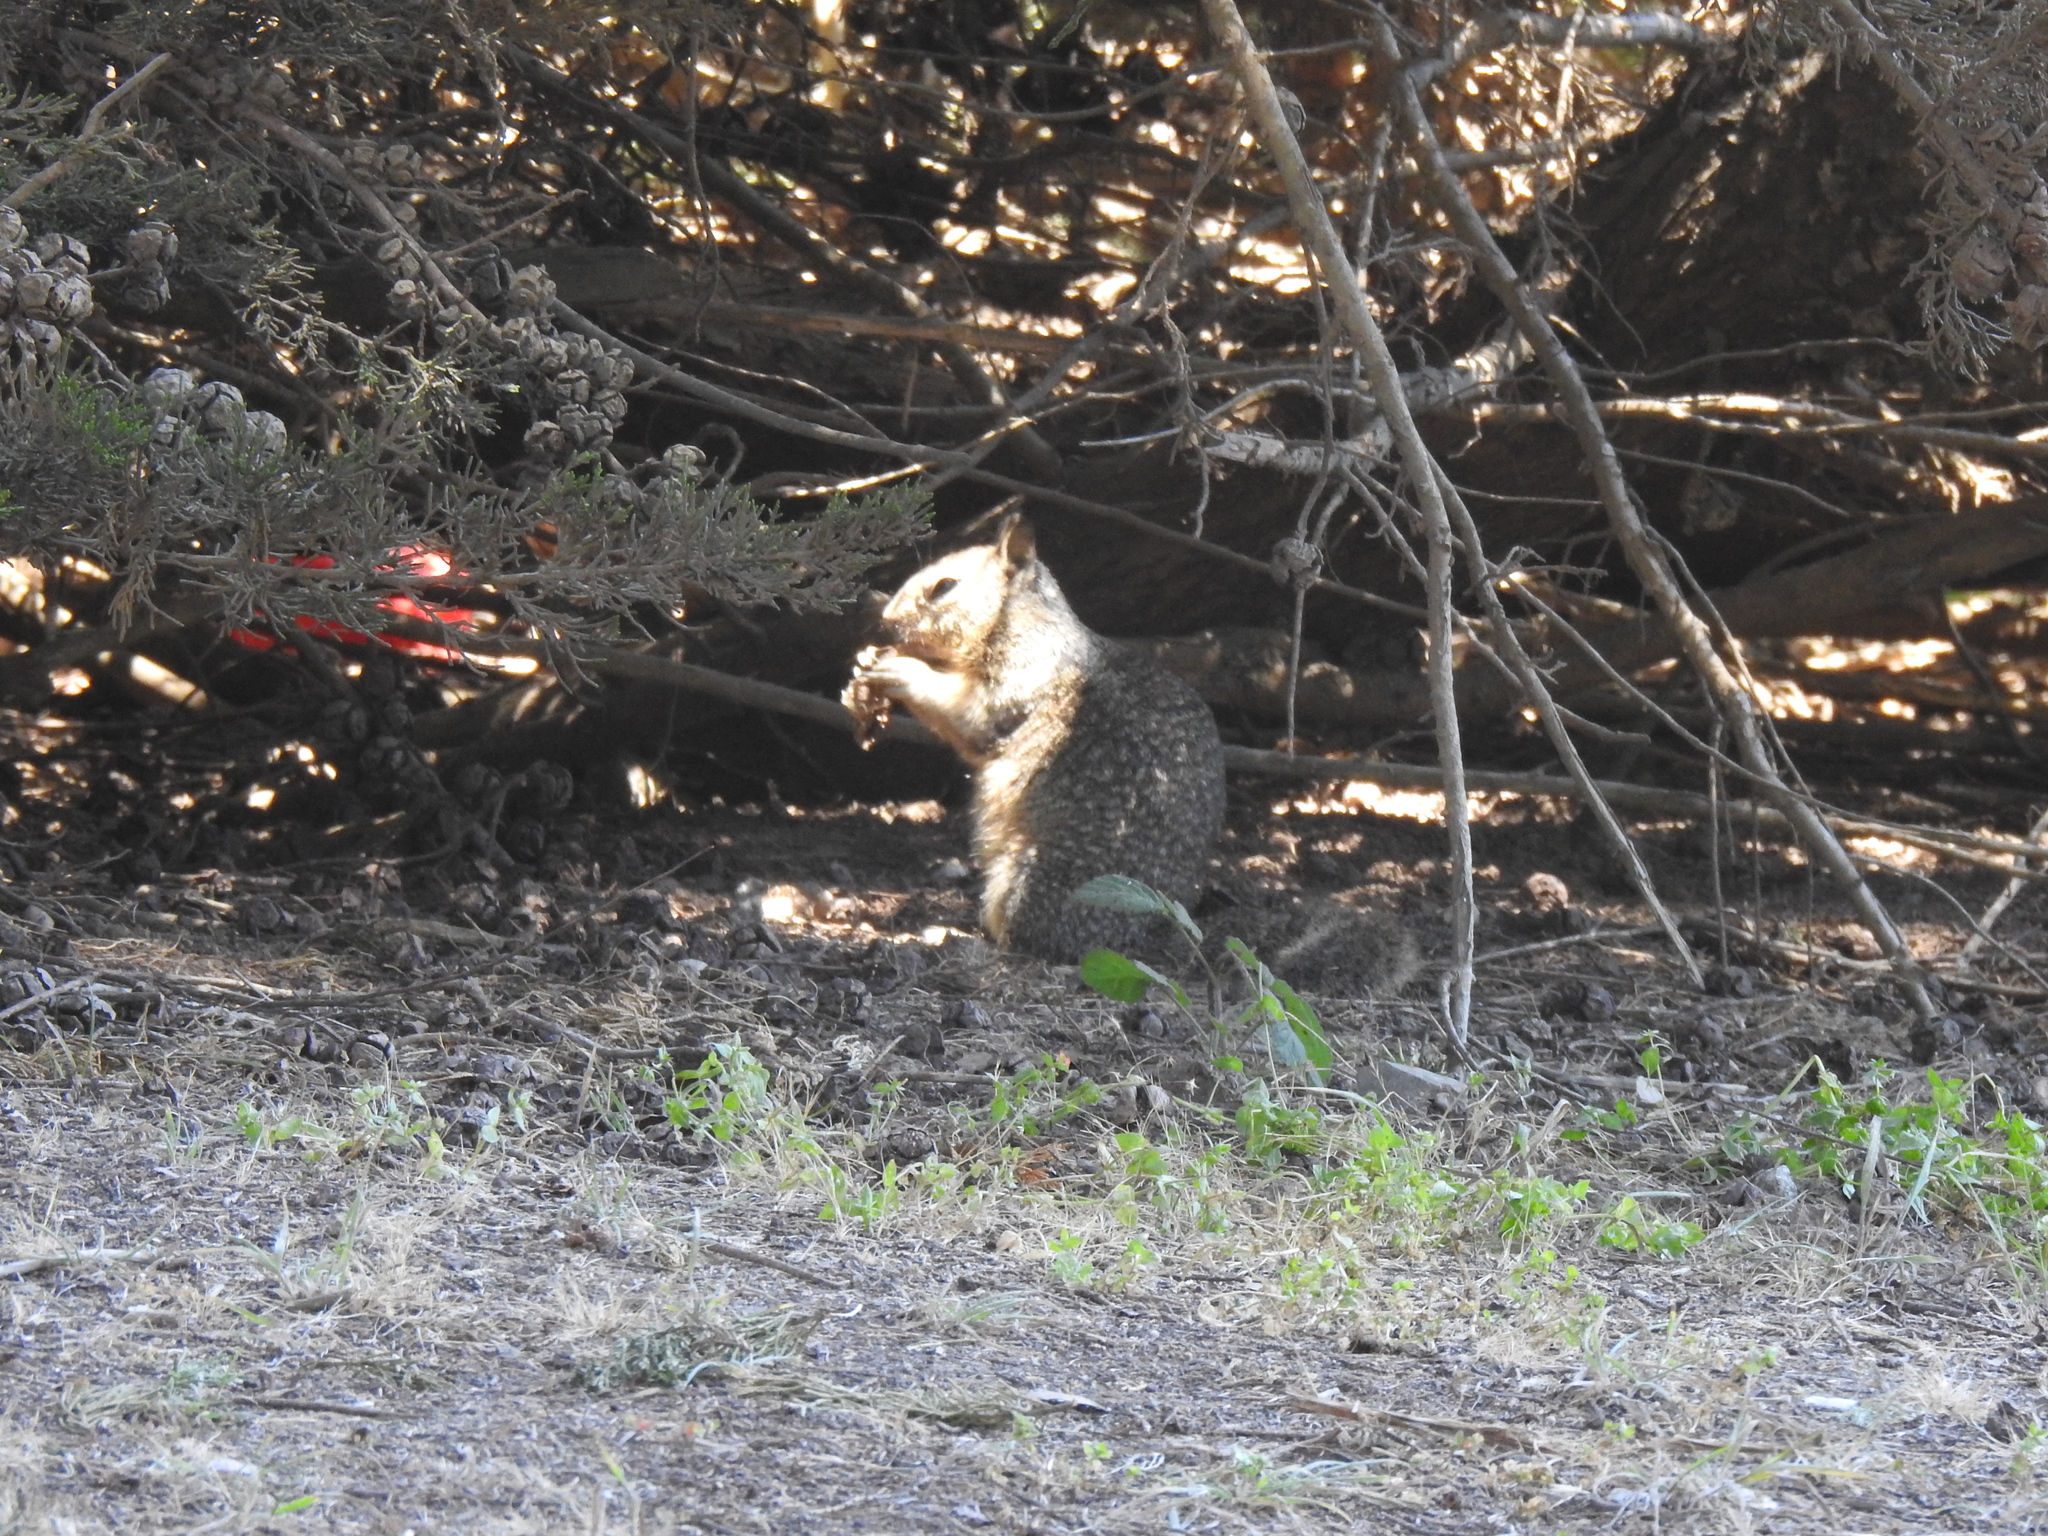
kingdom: Animalia
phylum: Chordata
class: Mammalia
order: Rodentia
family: Sciuridae
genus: Otospermophilus
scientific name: Otospermophilus beecheyi
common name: California ground squirrel
